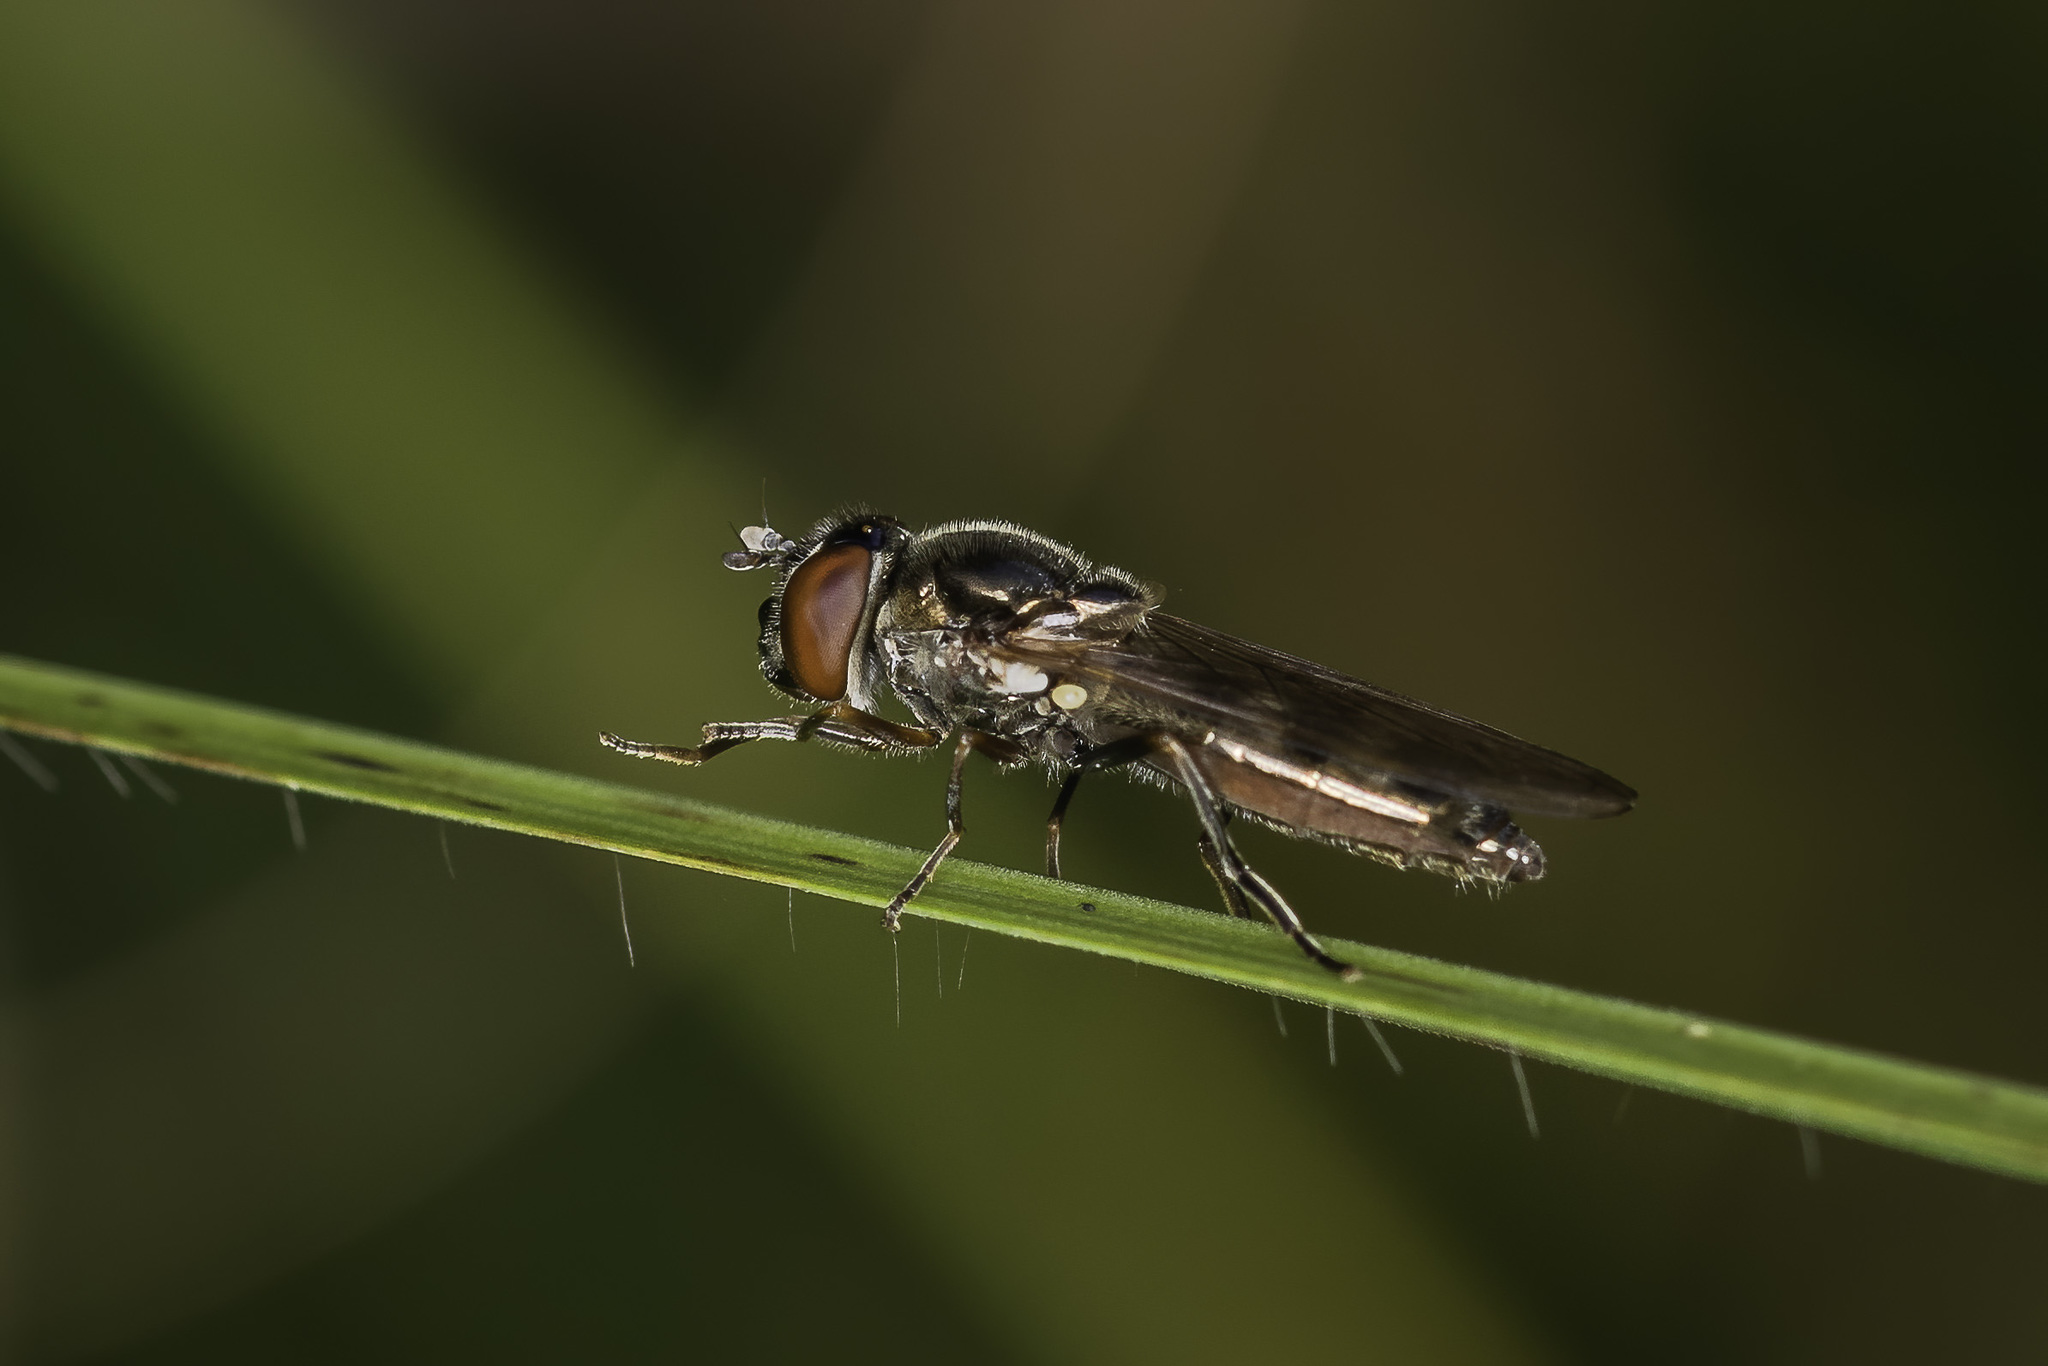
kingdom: Animalia
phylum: Arthropoda
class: Insecta
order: Diptera
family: Syrphidae
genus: Platycheirus
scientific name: Platycheirus albimanus
